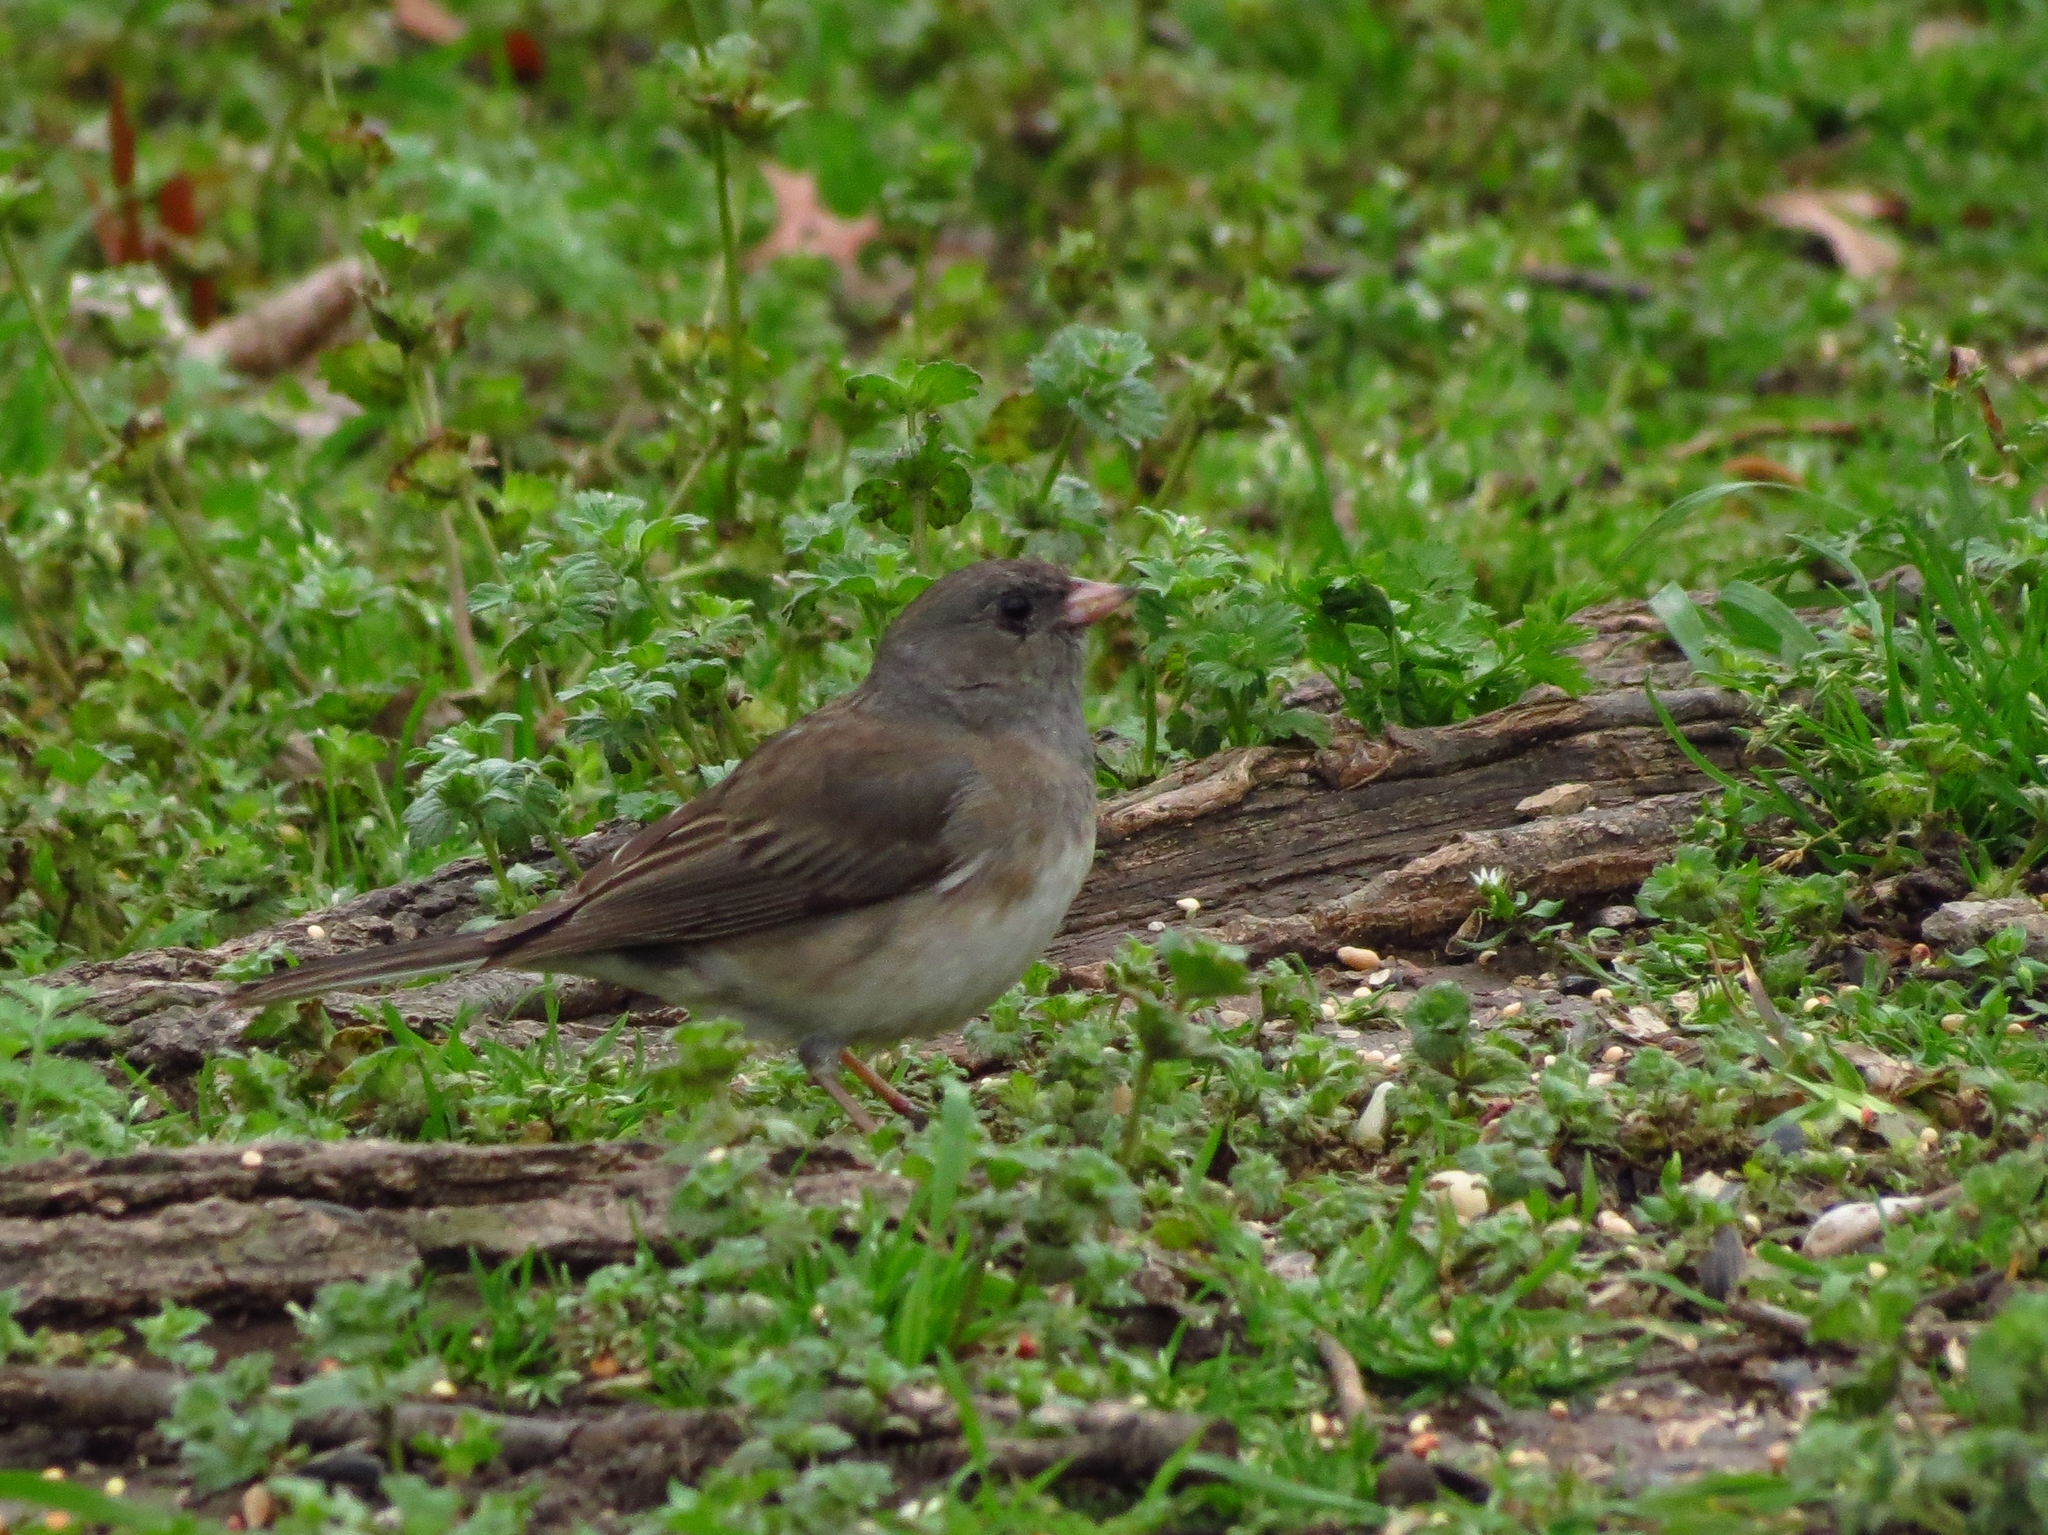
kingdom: Animalia
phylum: Chordata
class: Aves
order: Passeriformes
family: Passerellidae
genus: Junco
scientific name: Junco hyemalis
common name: Dark-eyed junco
